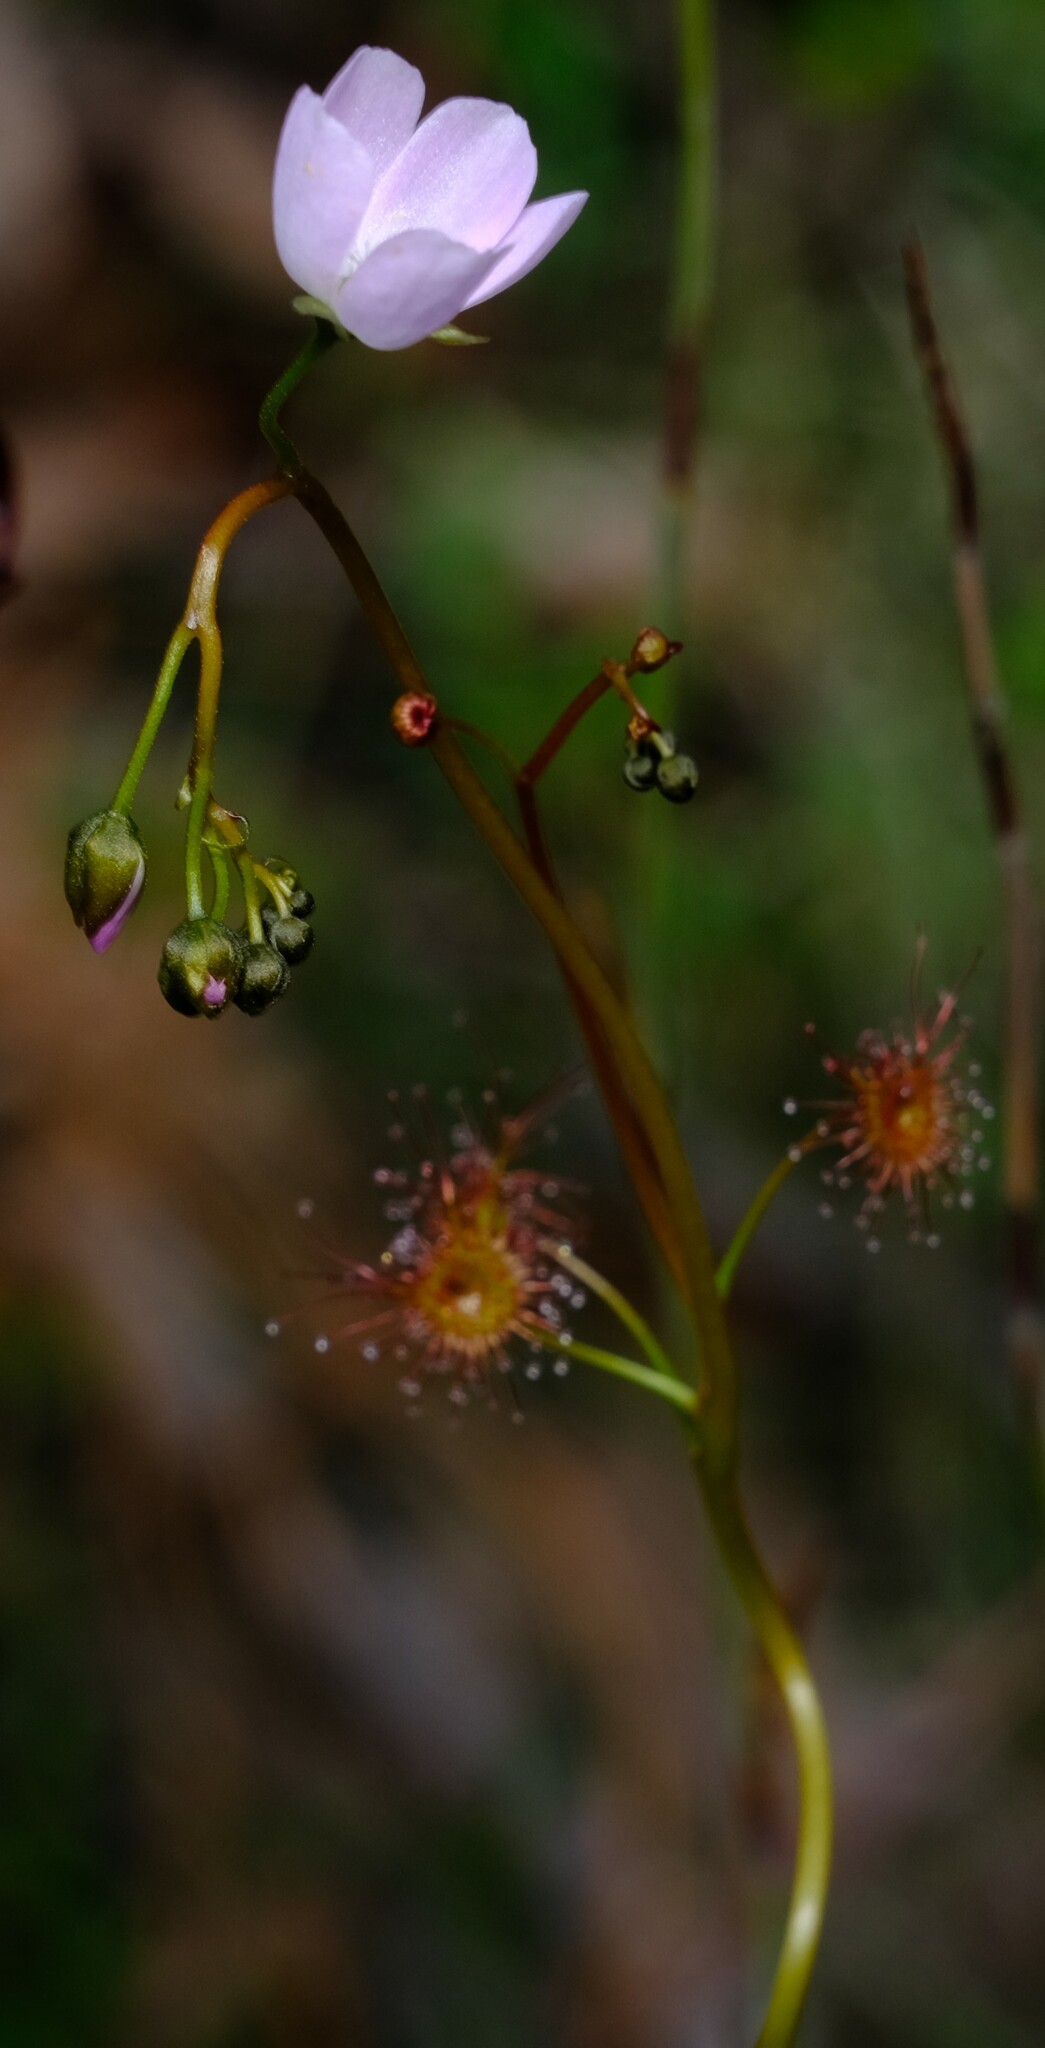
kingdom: Plantae
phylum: Tracheophyta
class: Magnoliopsida
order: Caryophyllales
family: Droseraceae
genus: Drosera
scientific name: Drosera peltata
